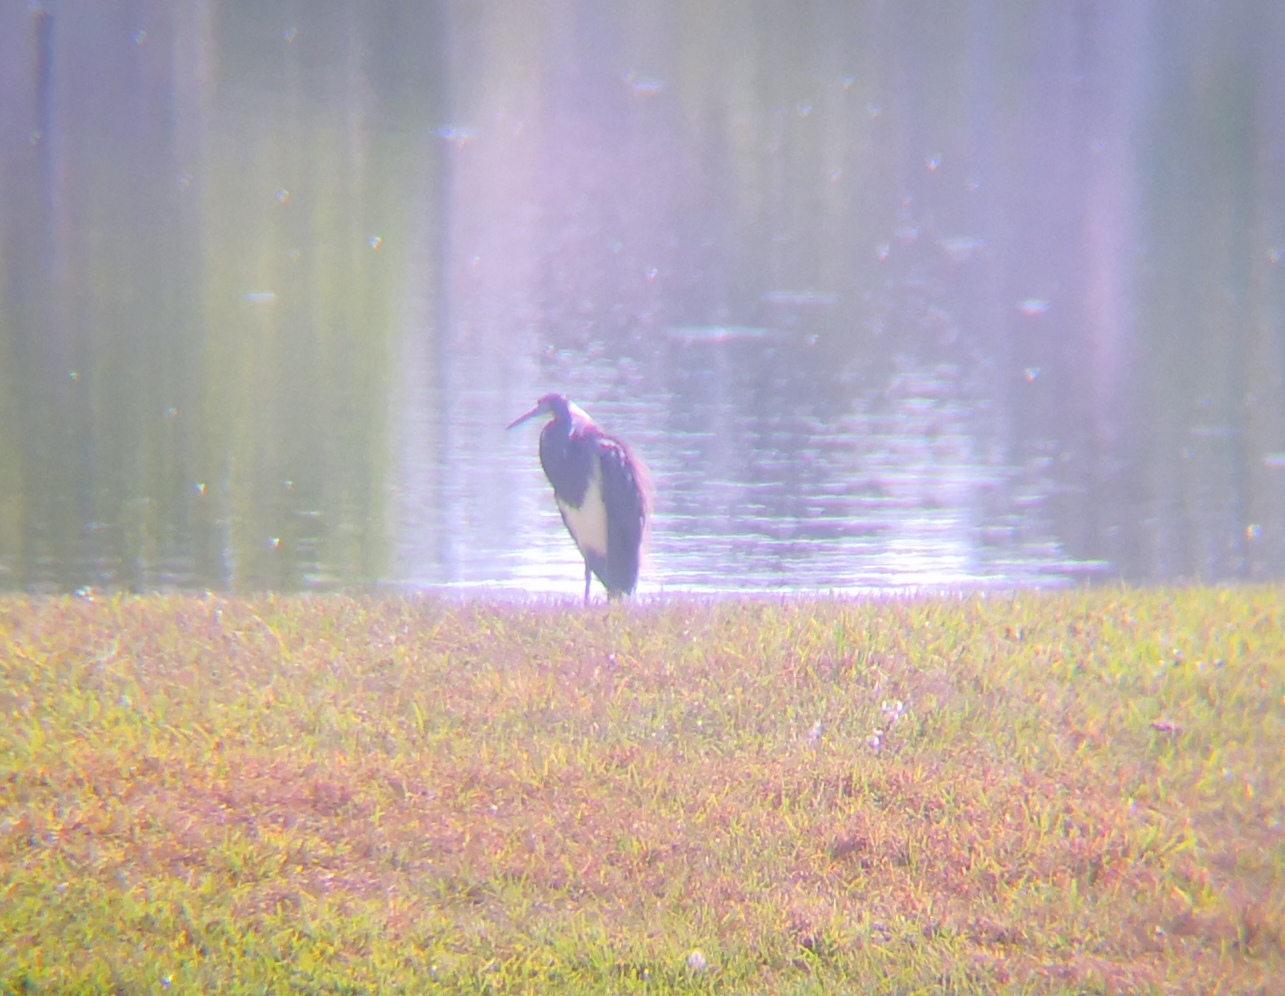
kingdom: Animalia
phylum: Chordata
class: Aves
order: Pelecaniformes
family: Ardeidae
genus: Egretta
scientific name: Egretta tricolor
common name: Tricolored heron
